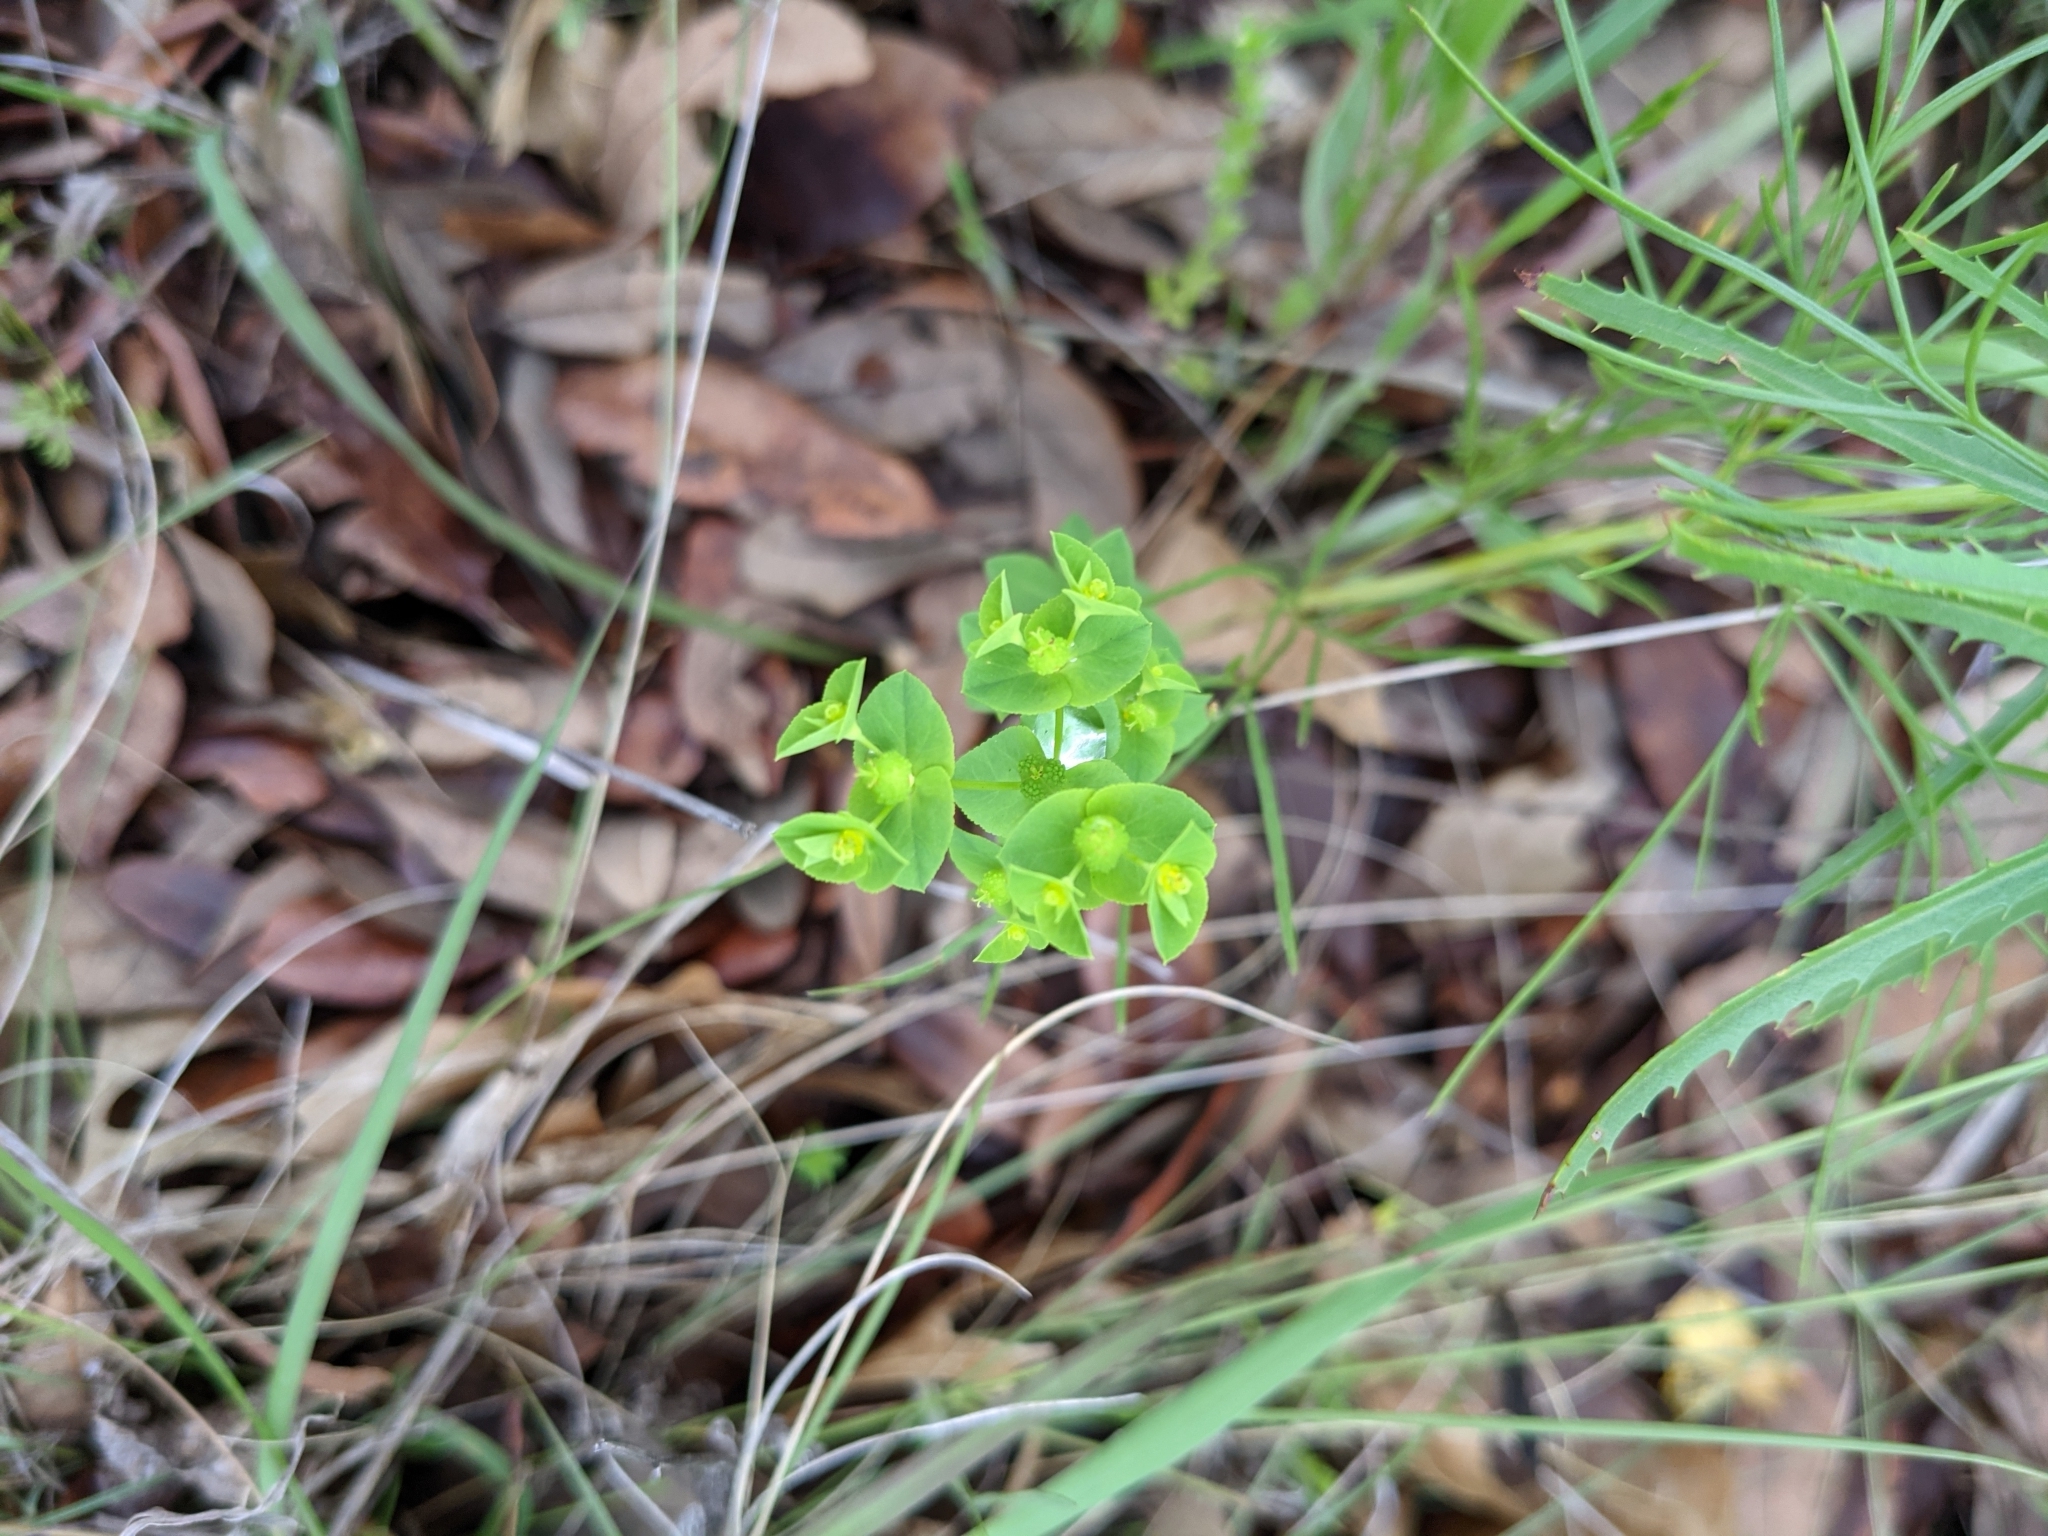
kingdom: Plantae
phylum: Tracheophyta
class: Magnoliopsida
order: Malpighiales
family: Euphorbiaceae
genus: Euphorbia
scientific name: Euphorbia spathulata
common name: Blunt spurge
